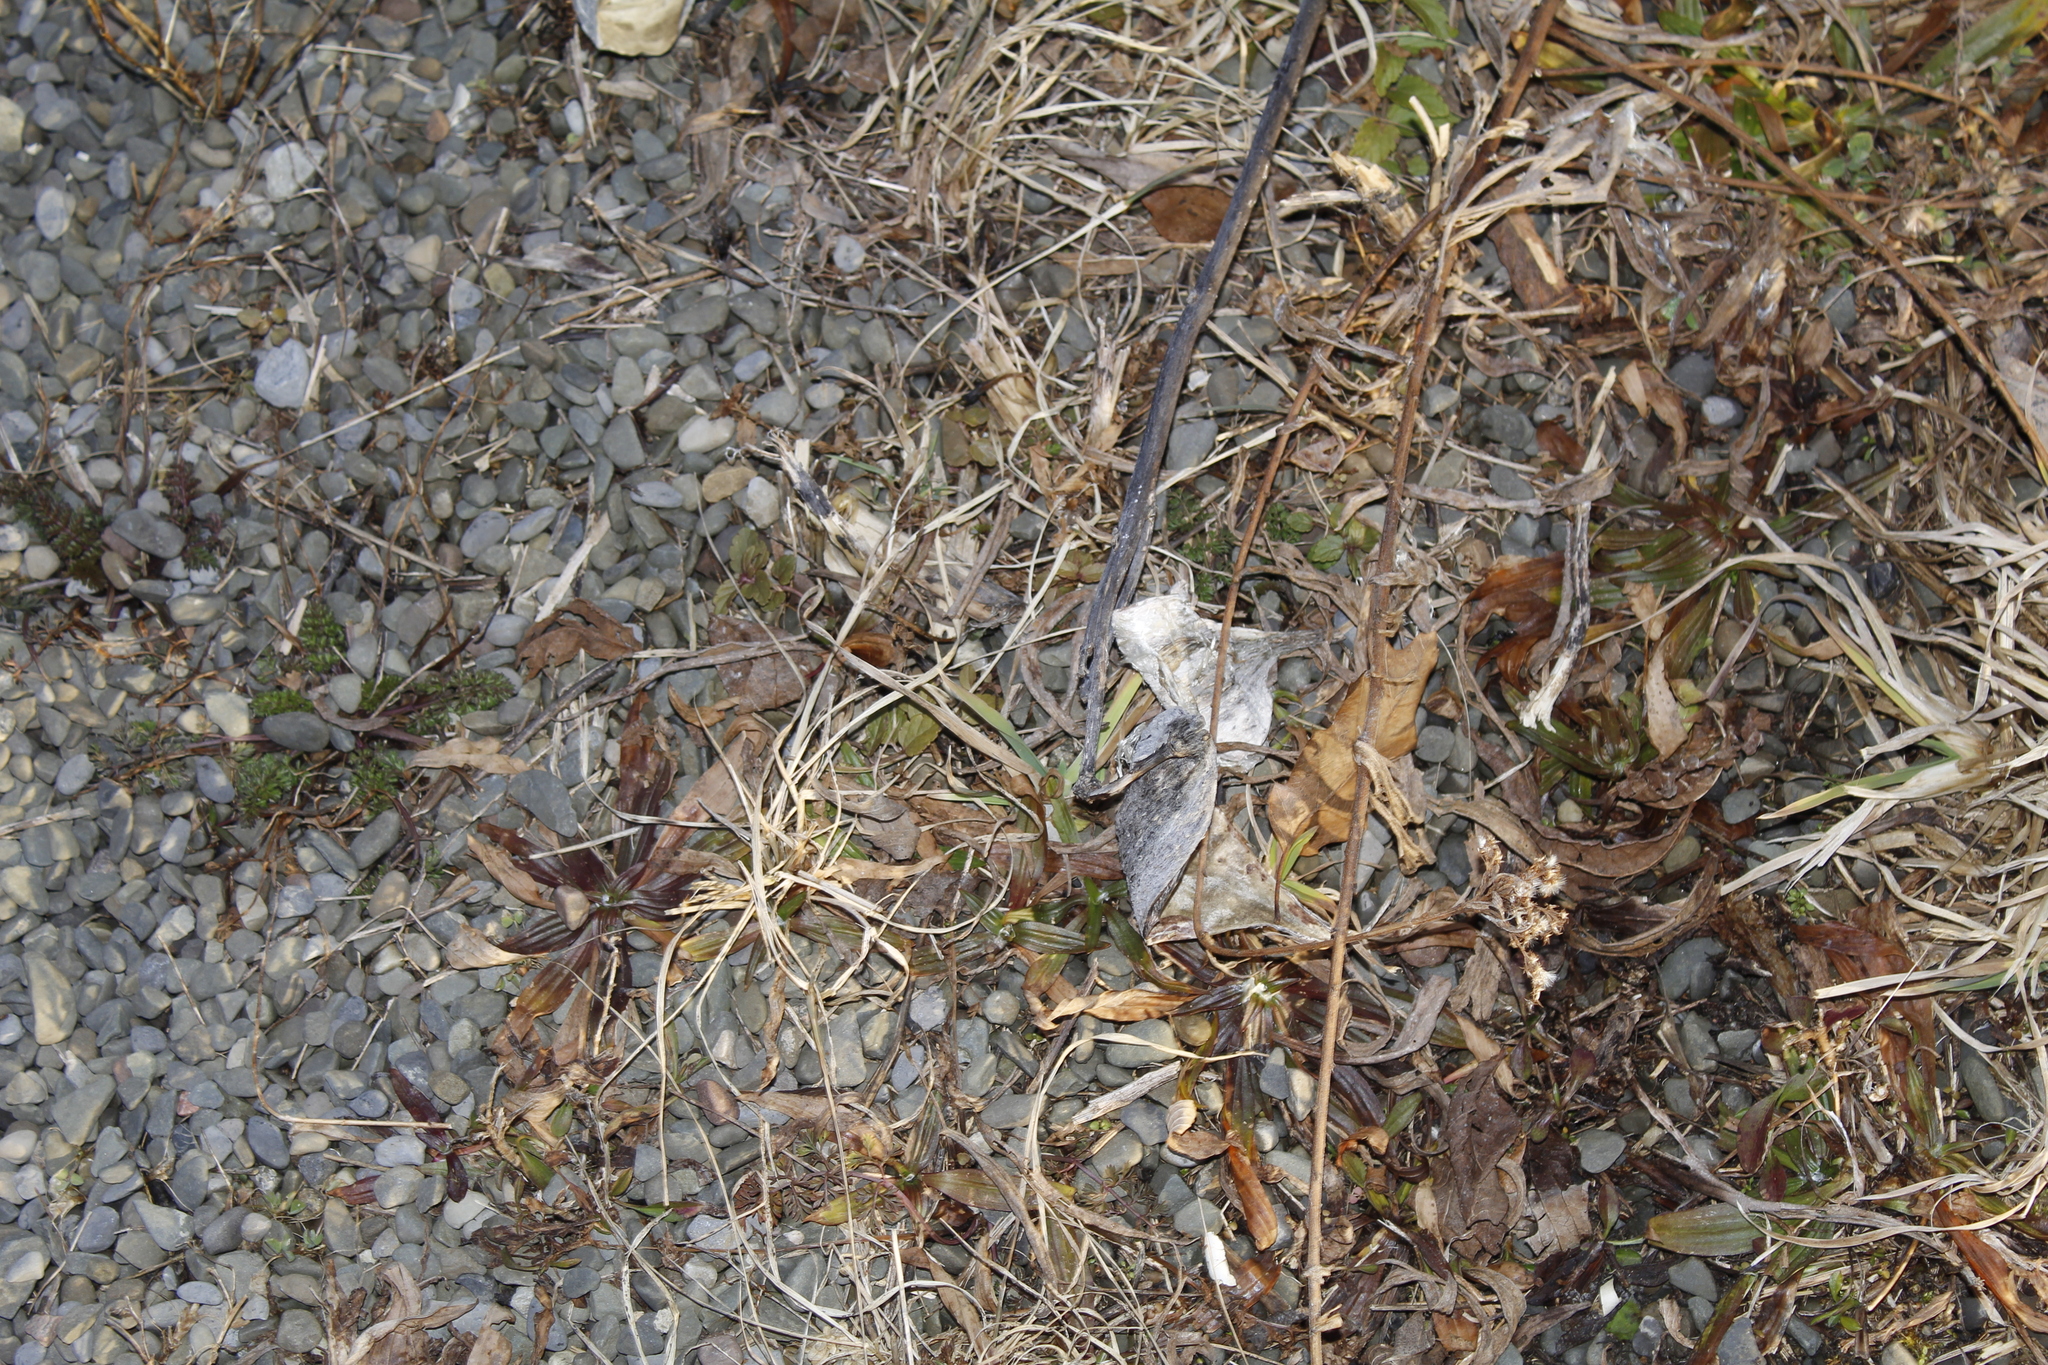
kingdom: Plantae
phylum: Tracheophyta
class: Magnoliopsida
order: Gentianales
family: Apocynaceae
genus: Asclepias
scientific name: Asclepias syriaca
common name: Common milkweed
